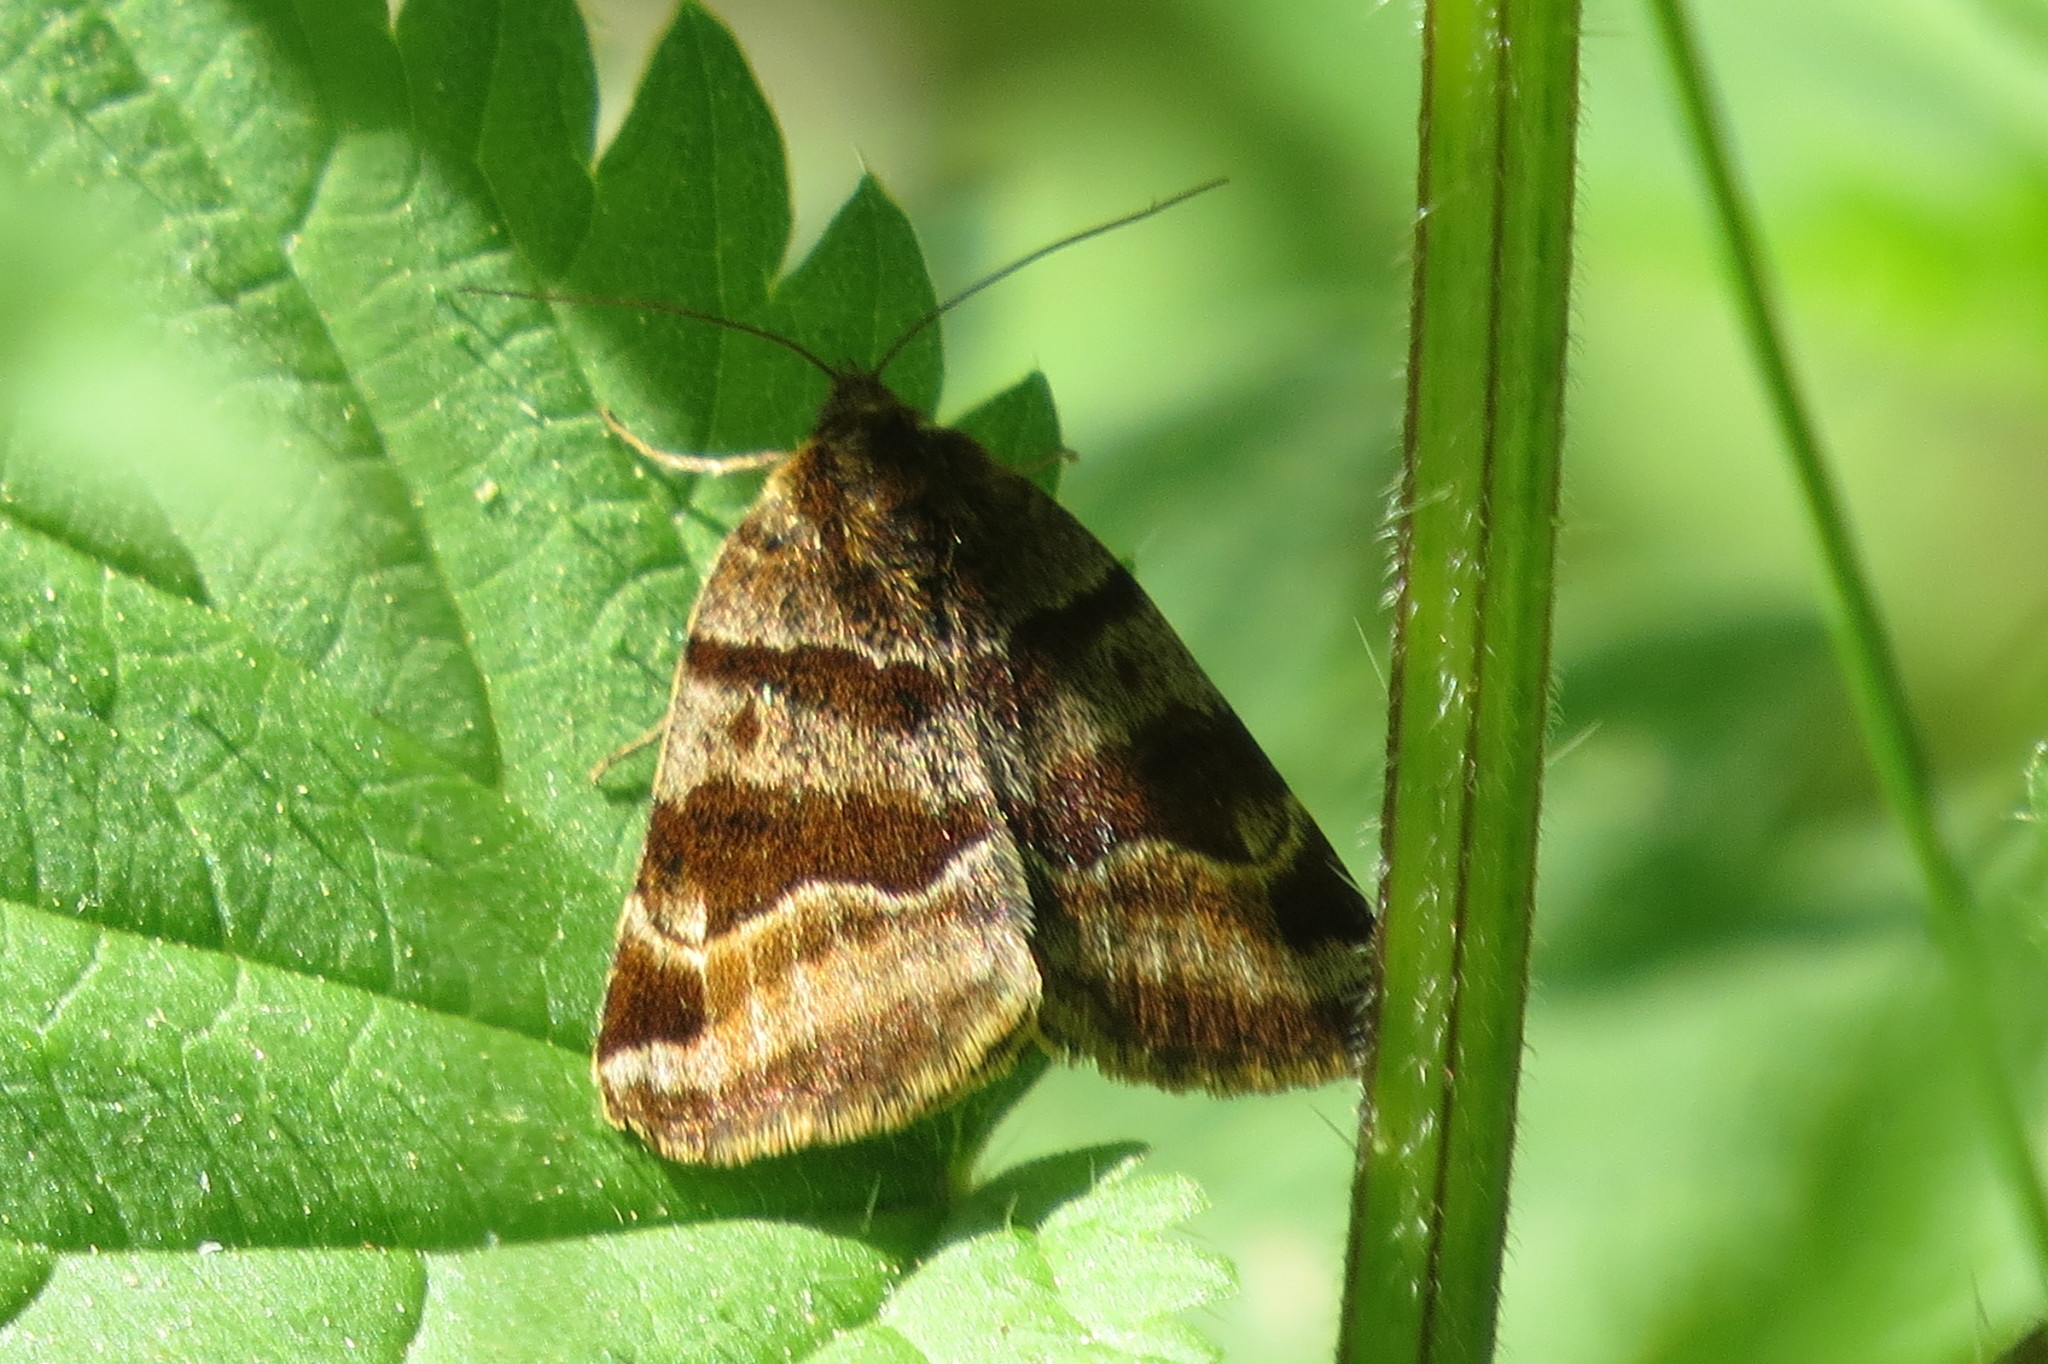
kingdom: Animalia
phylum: Arthropoda
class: Insecta
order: Lepidoptera
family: Erebidae
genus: Euclidia
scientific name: Euclidia glyphica
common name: Burnet companion
